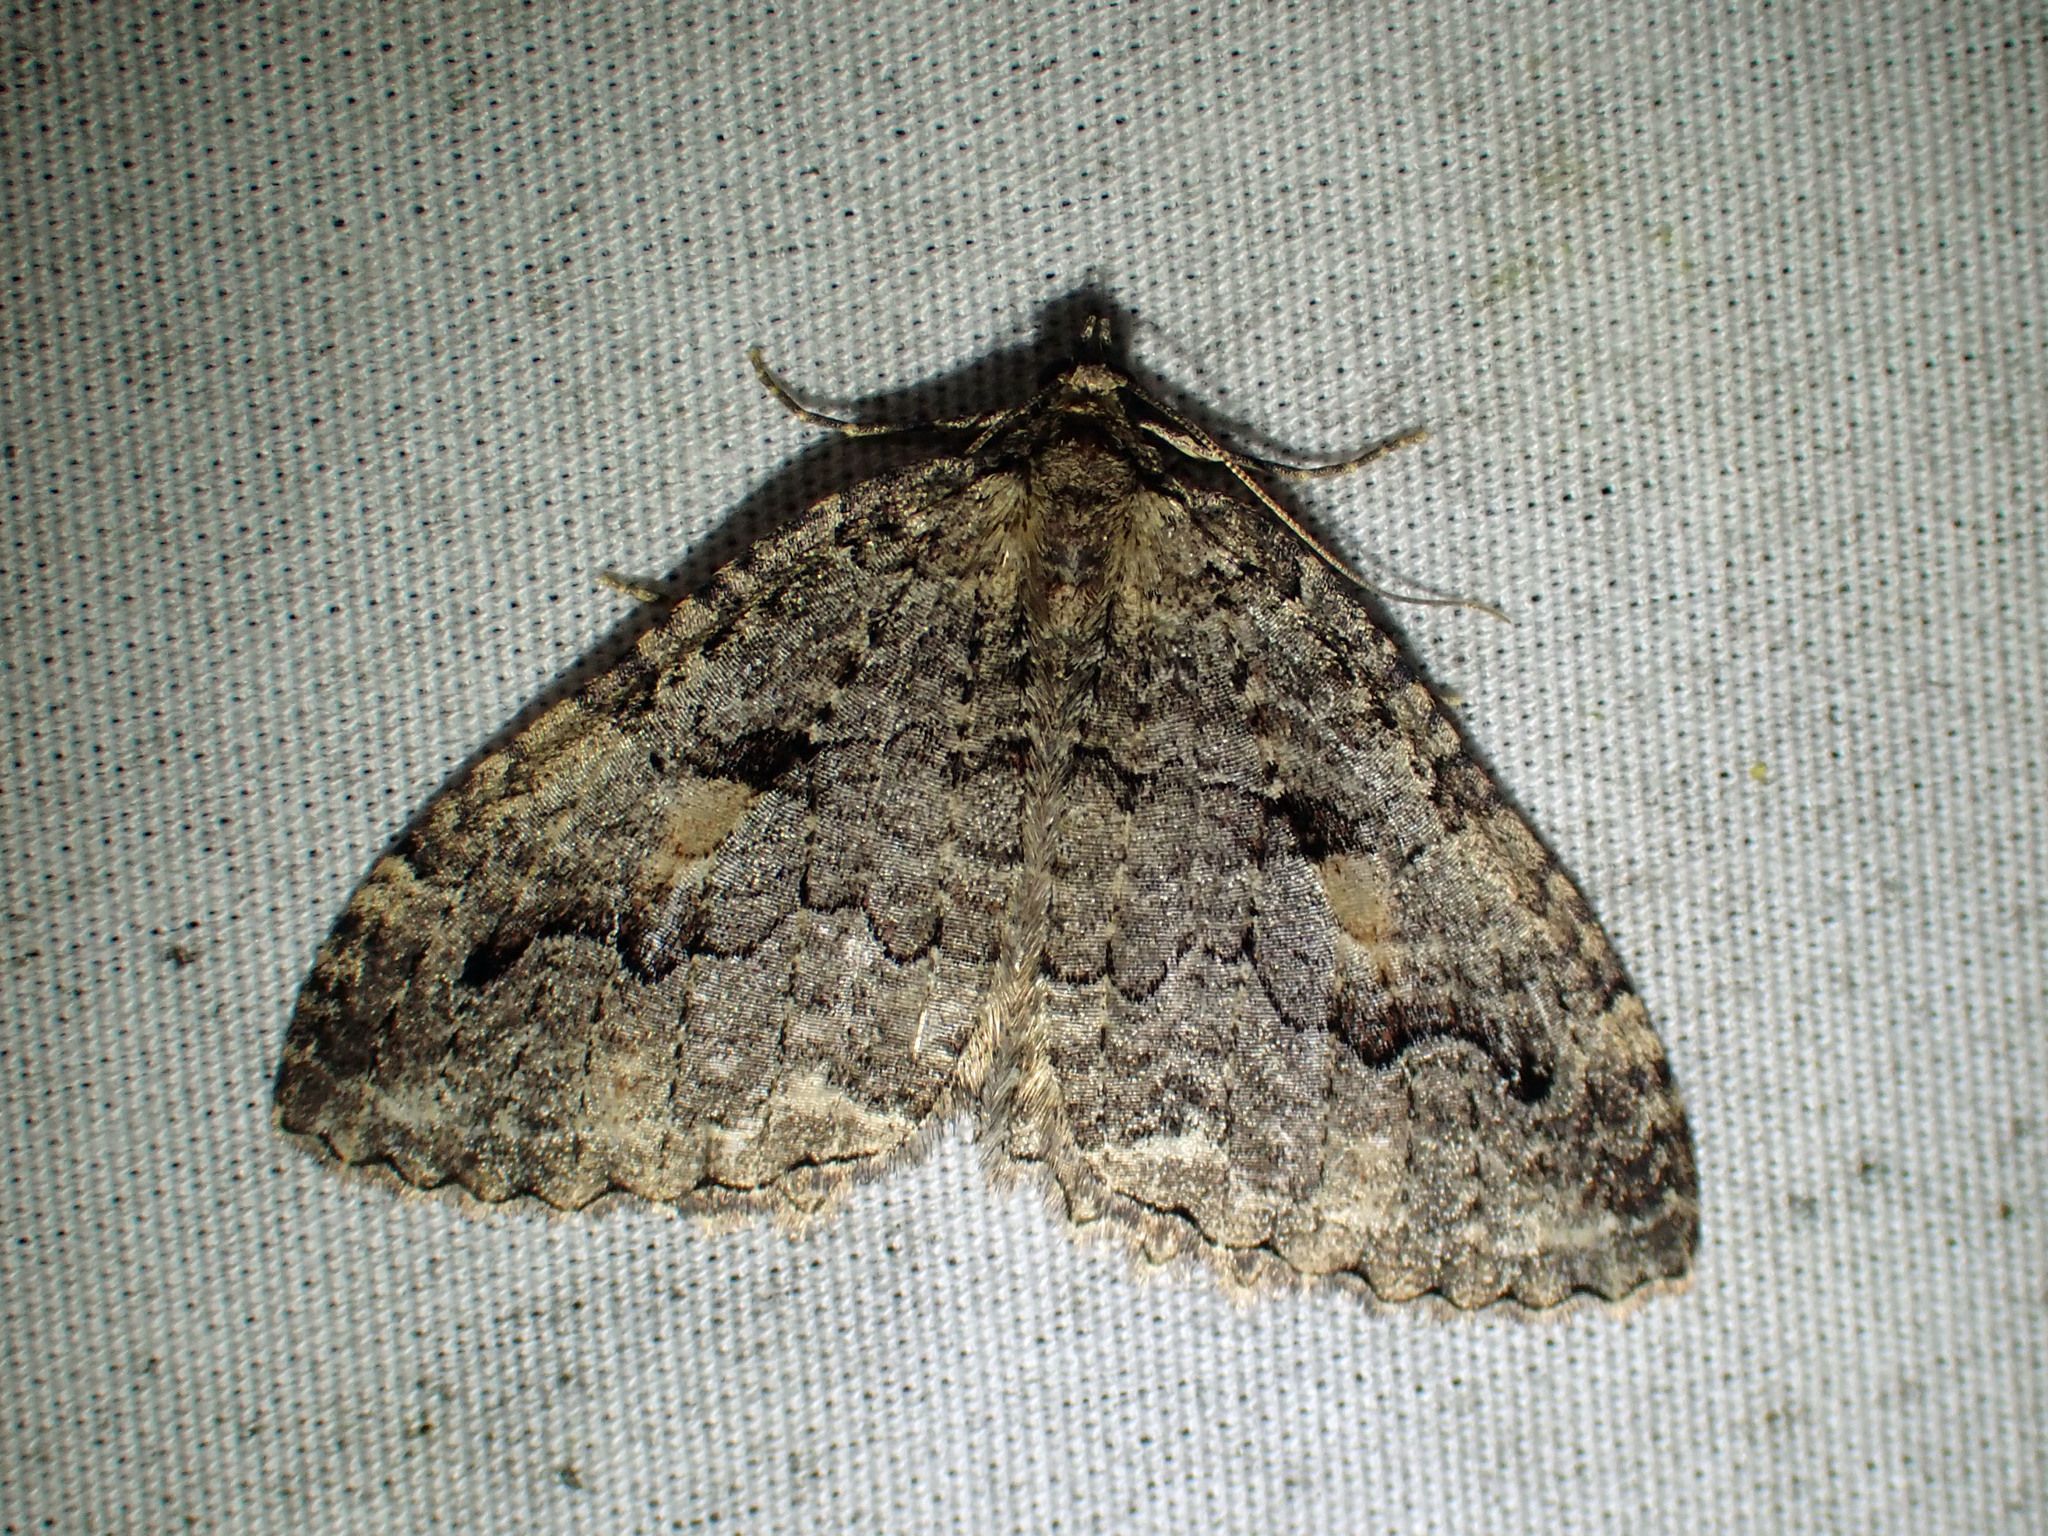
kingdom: Animalia
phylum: Arthropoda
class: Insecta
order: Lepidoptera
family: Geometridae
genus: Triphosa
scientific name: Triphosa haesitata
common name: Tissue moth
